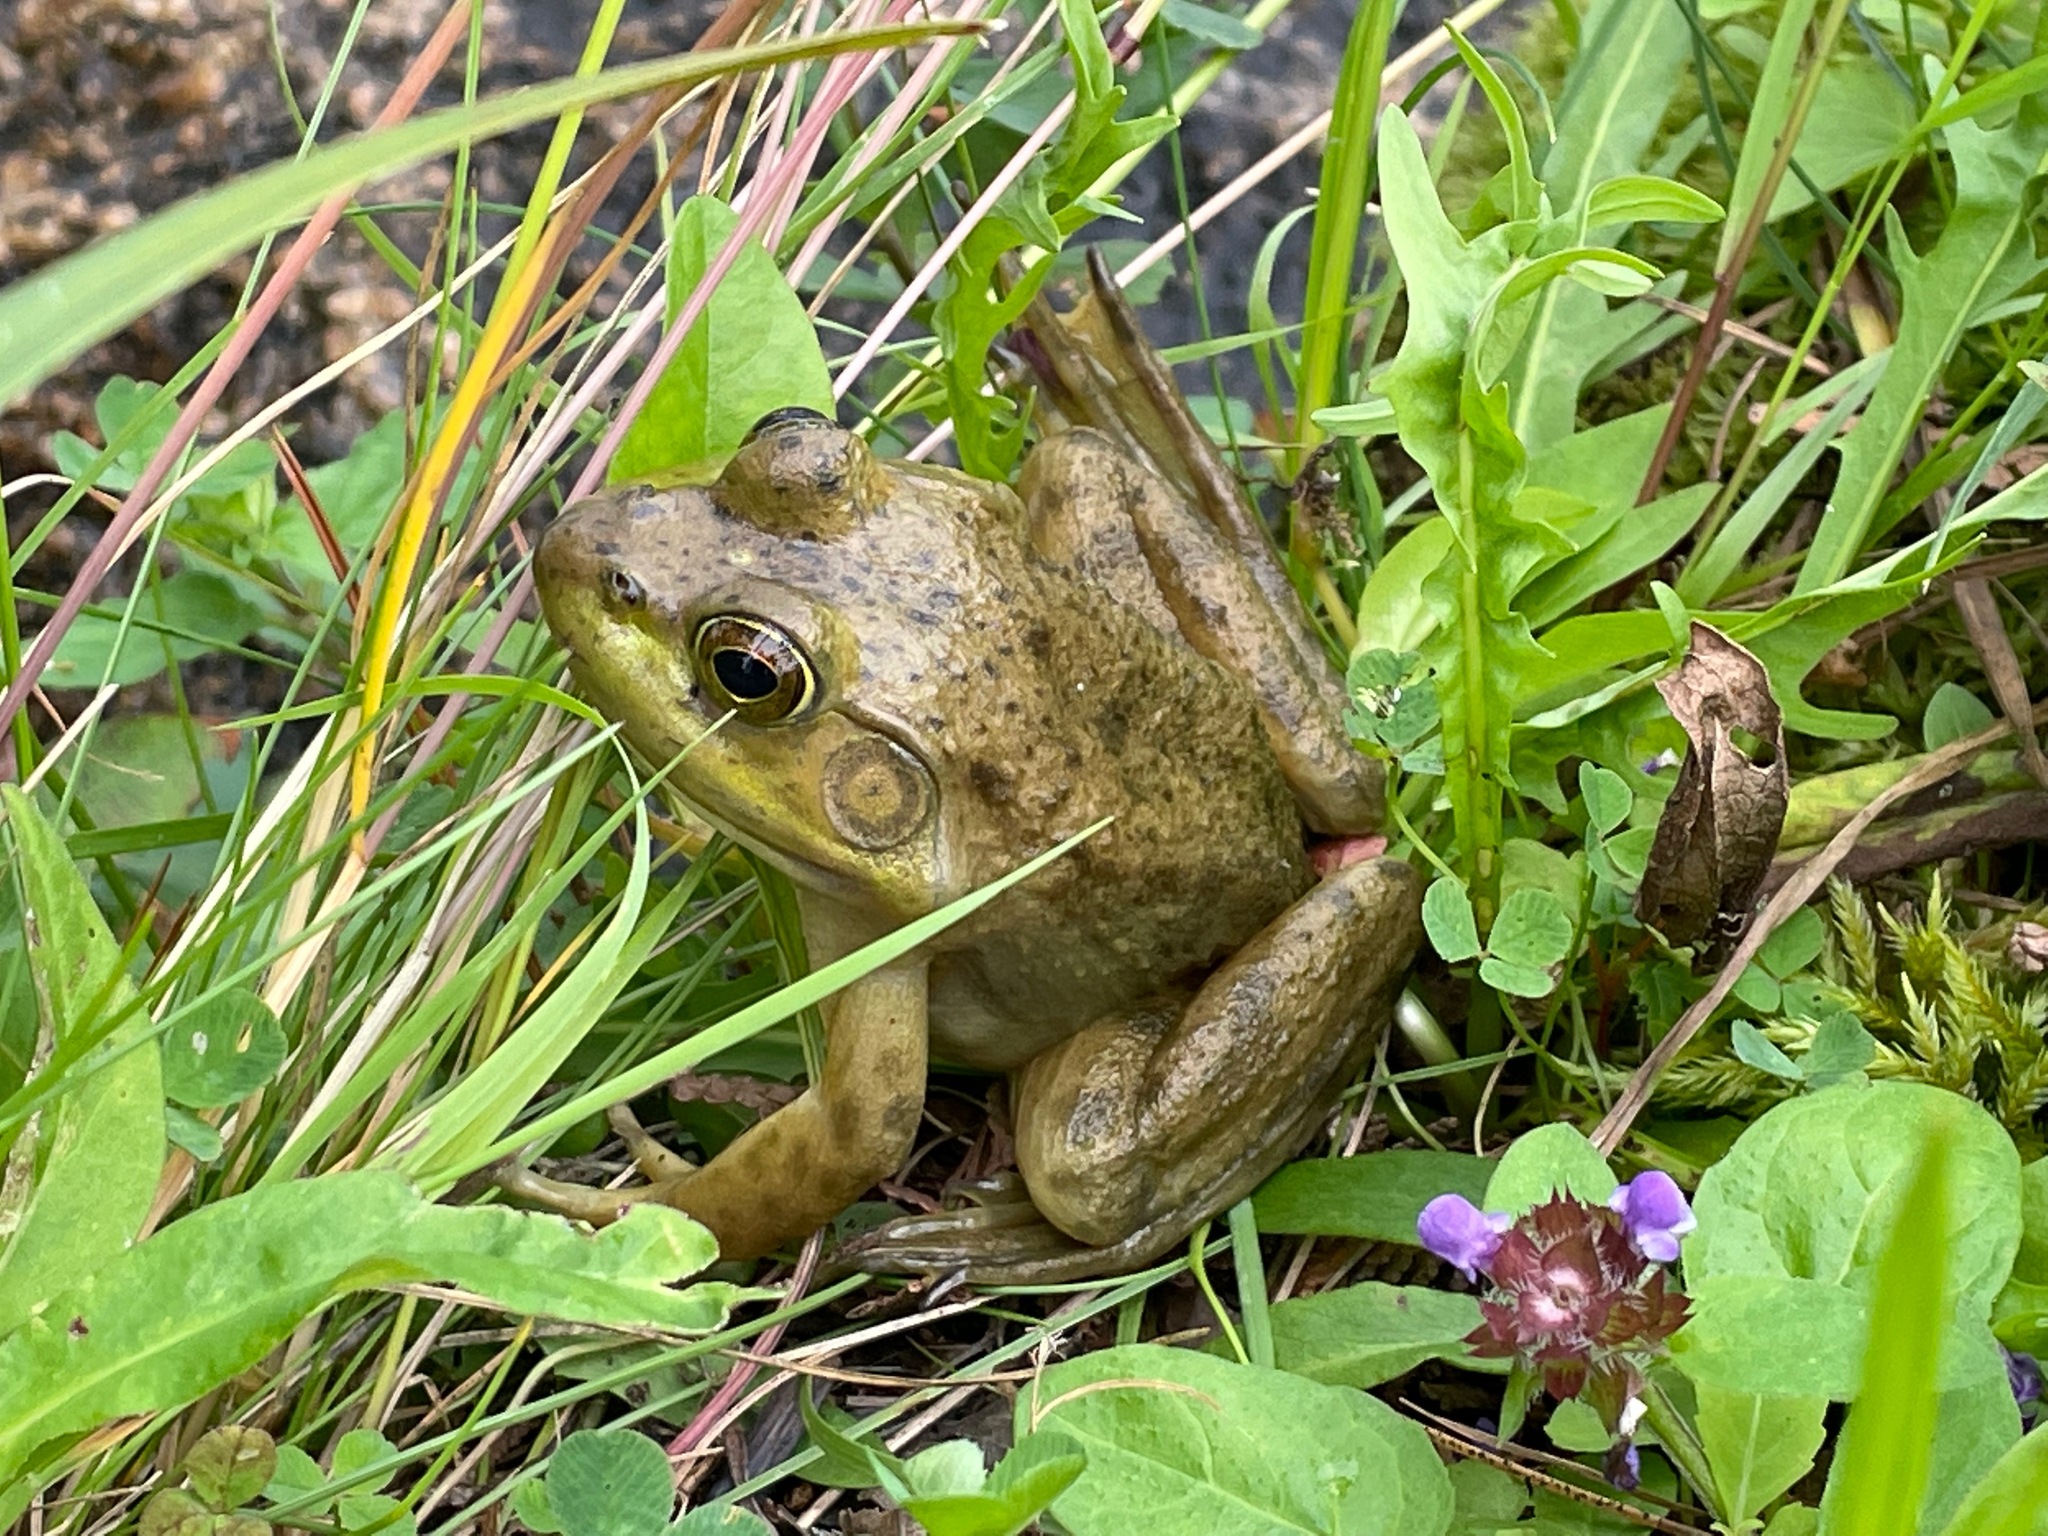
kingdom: Animalia
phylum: Chordata
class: Amphibia
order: Anura
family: Ranidae
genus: Lithobates
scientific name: Lithobates catesbeianus
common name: American bullfrog
